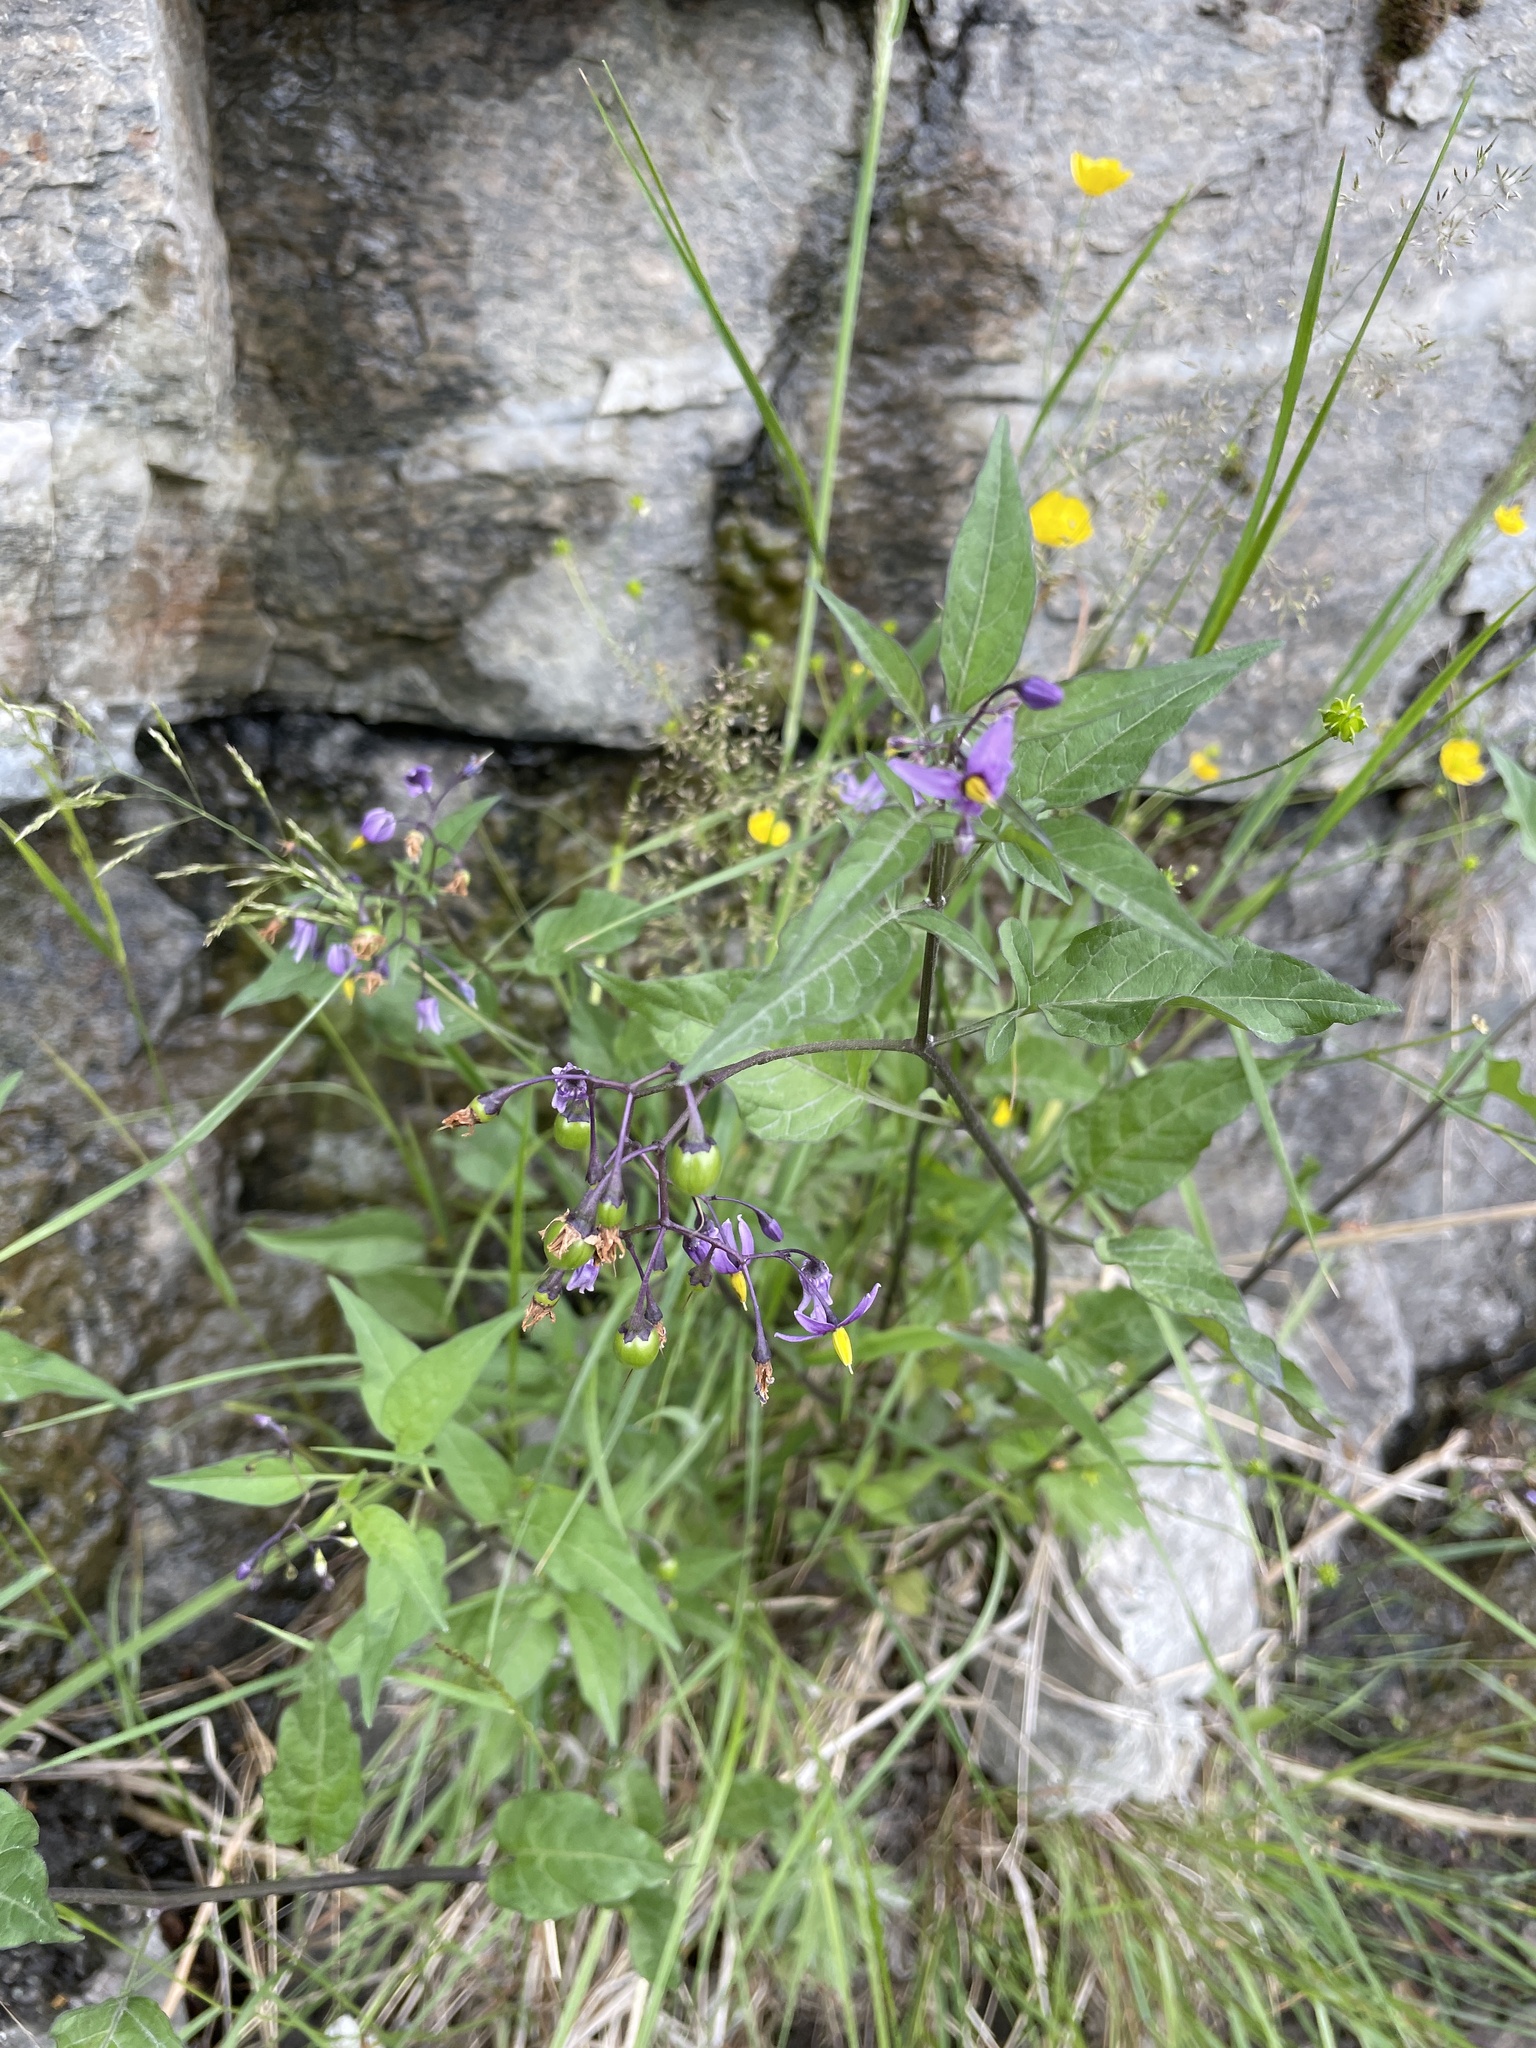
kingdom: Plantae
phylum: Tracheophyta
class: Magnoliopsida
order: Solanales
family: Solanaceae
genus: Solanum
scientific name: Solanum dulcamara
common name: Climbing nightshade
